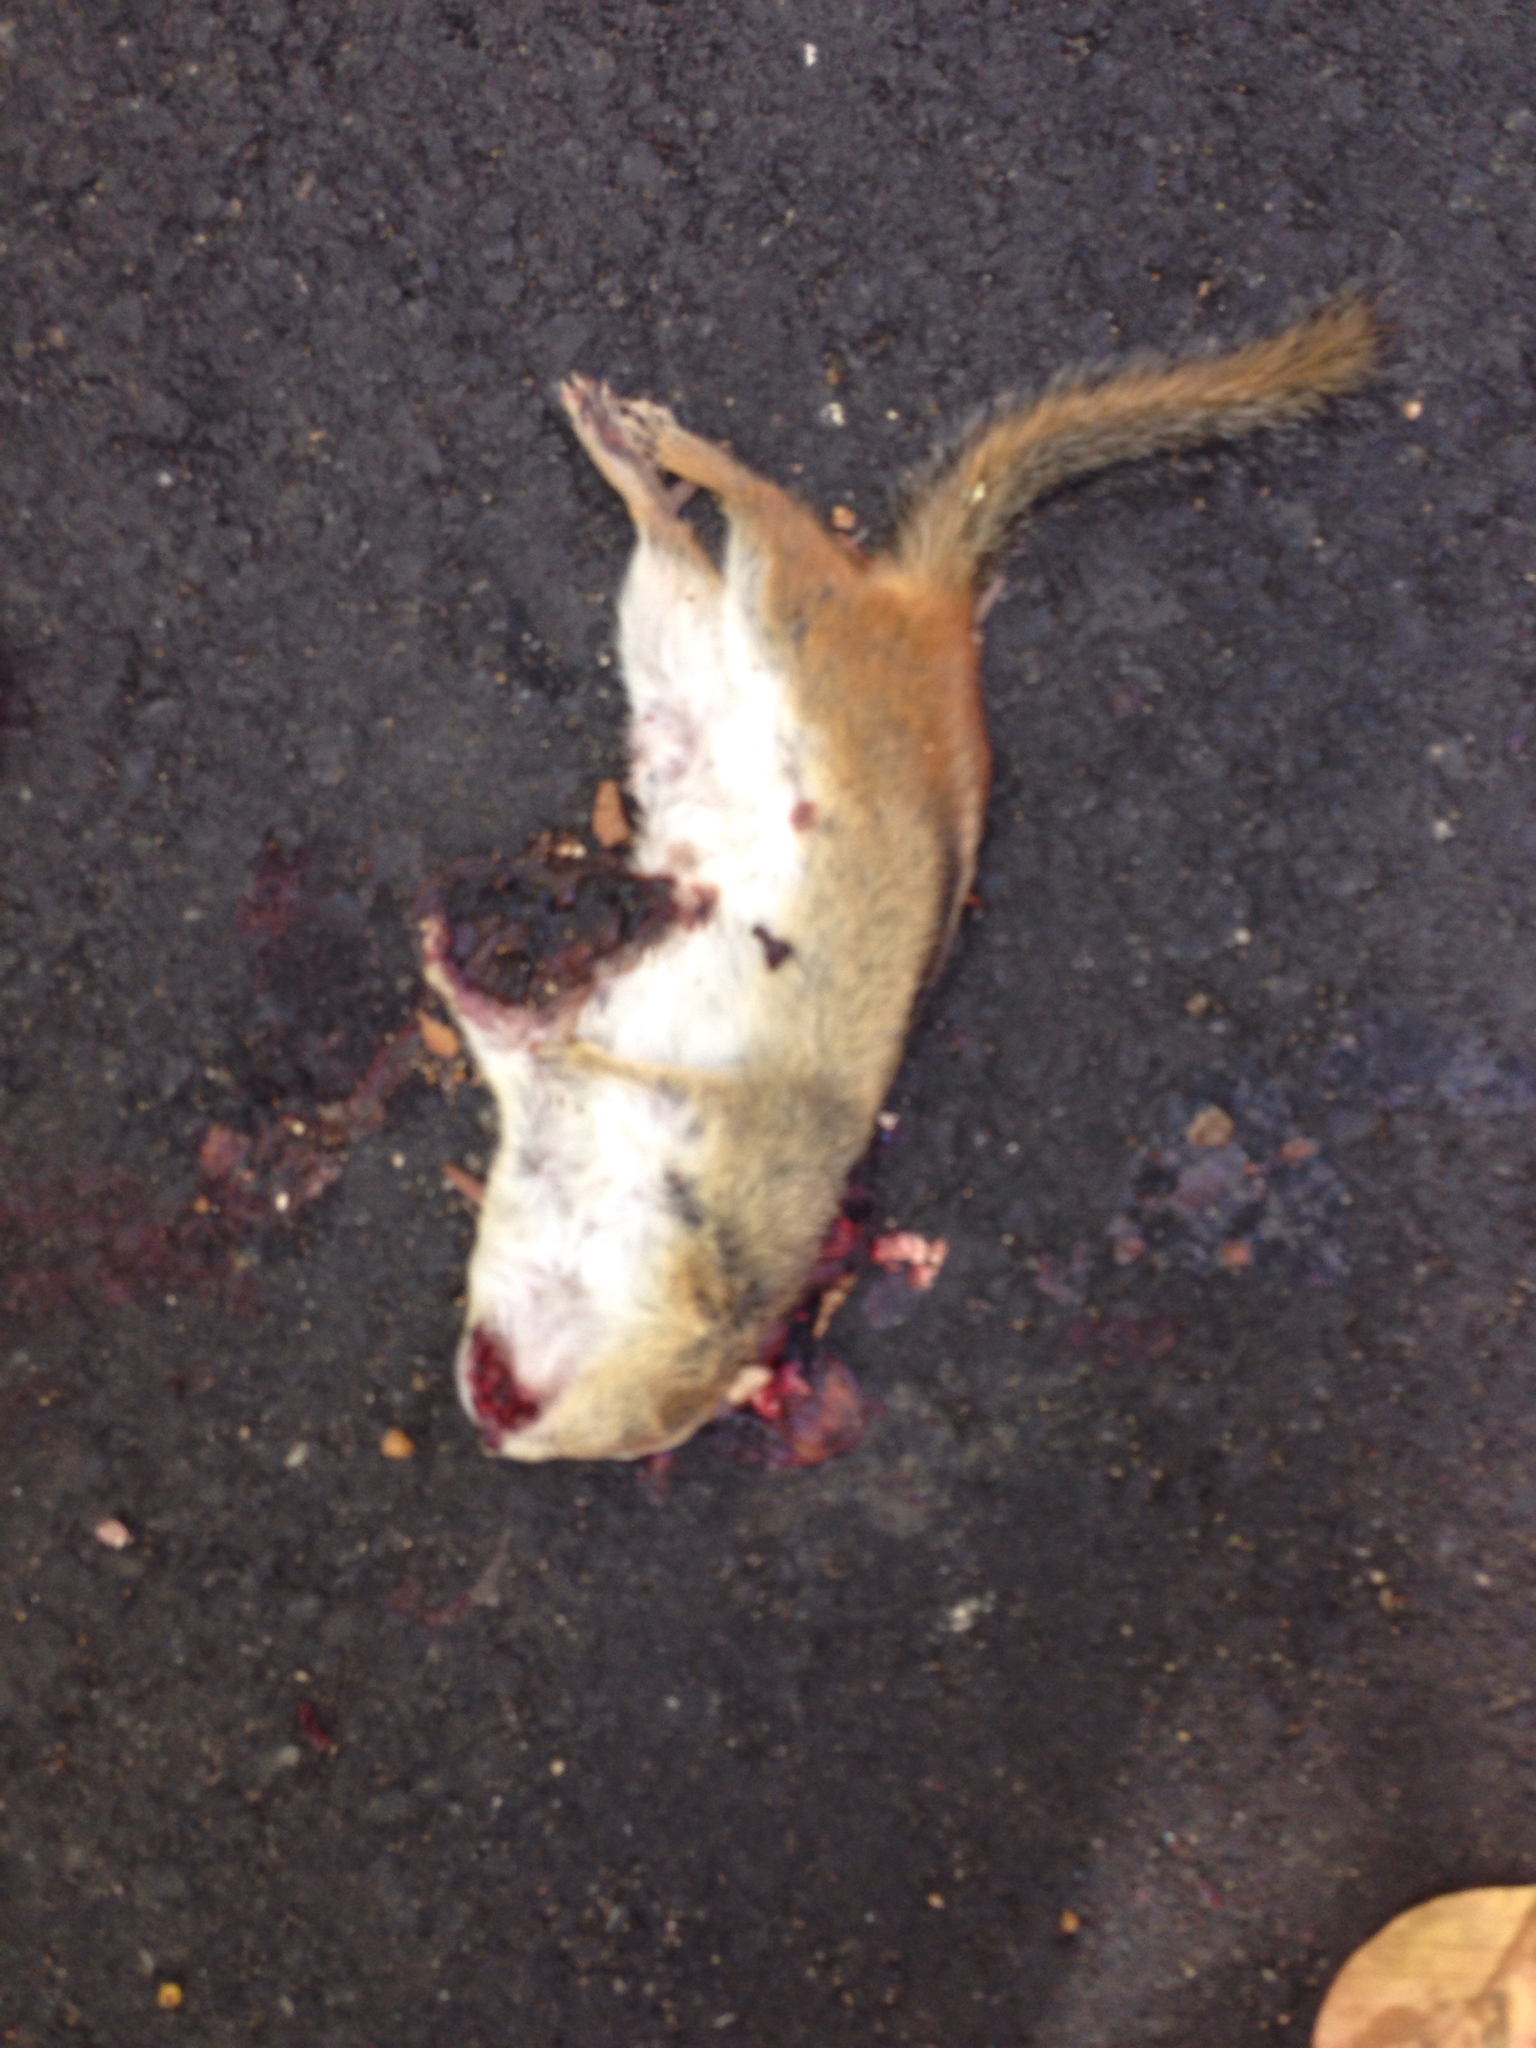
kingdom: Animalia
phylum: Chordata
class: Mammalia
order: Rodentia
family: Sciuridae
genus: Tamias
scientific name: Tamias striatus
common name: Eastern chipmunk
